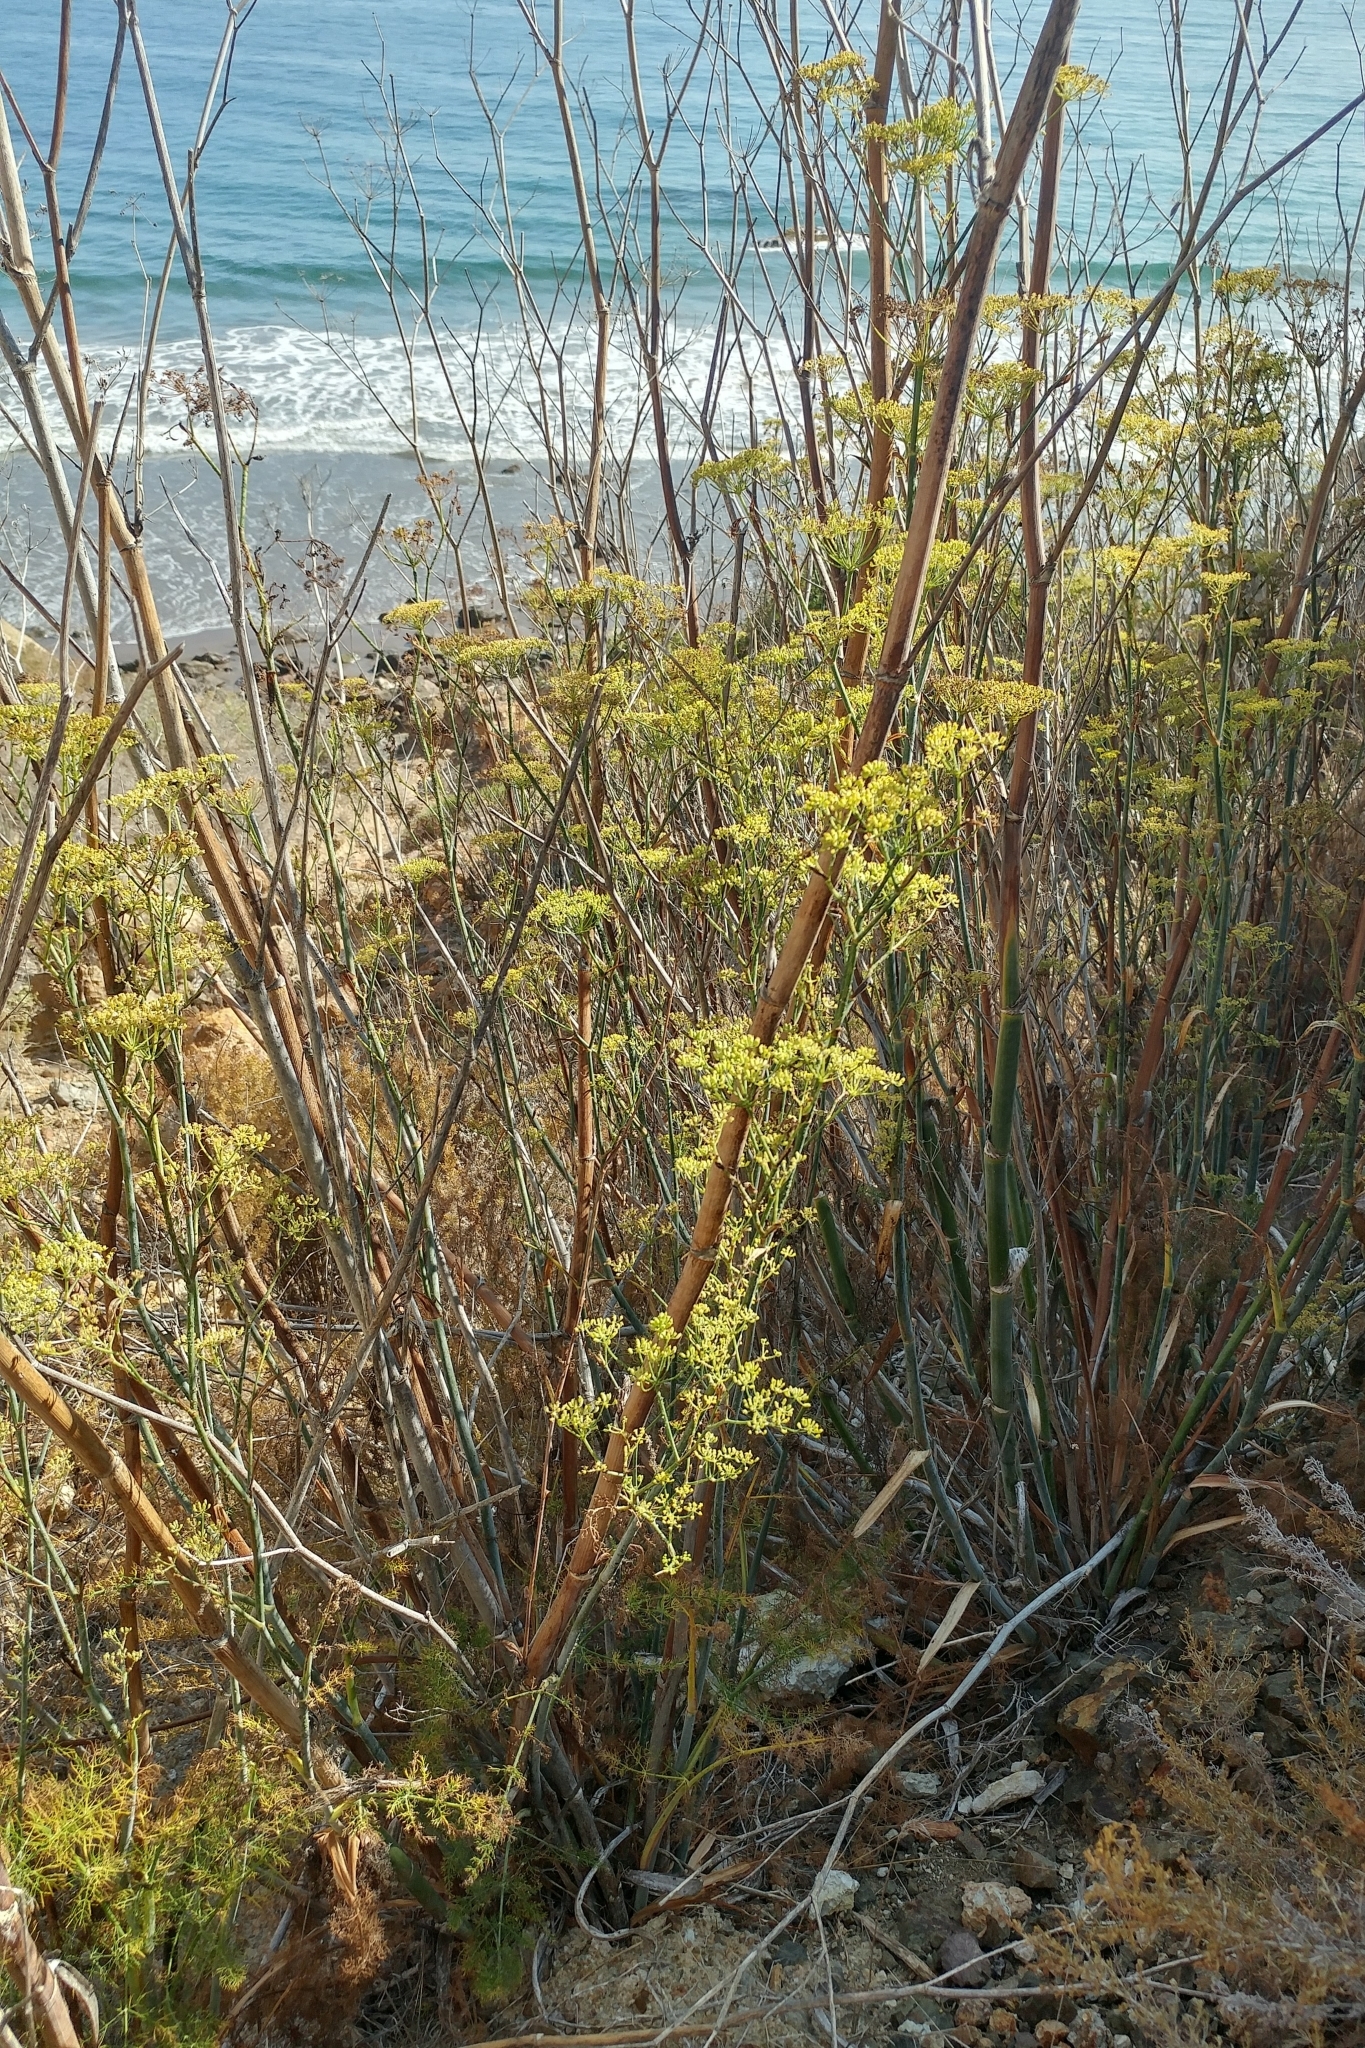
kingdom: Plantae
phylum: Tracheophyta
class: Magnoliopsida
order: Apiales
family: Apiaceae
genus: Foeniculum
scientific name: Foeniculum vulgare
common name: Fennel
